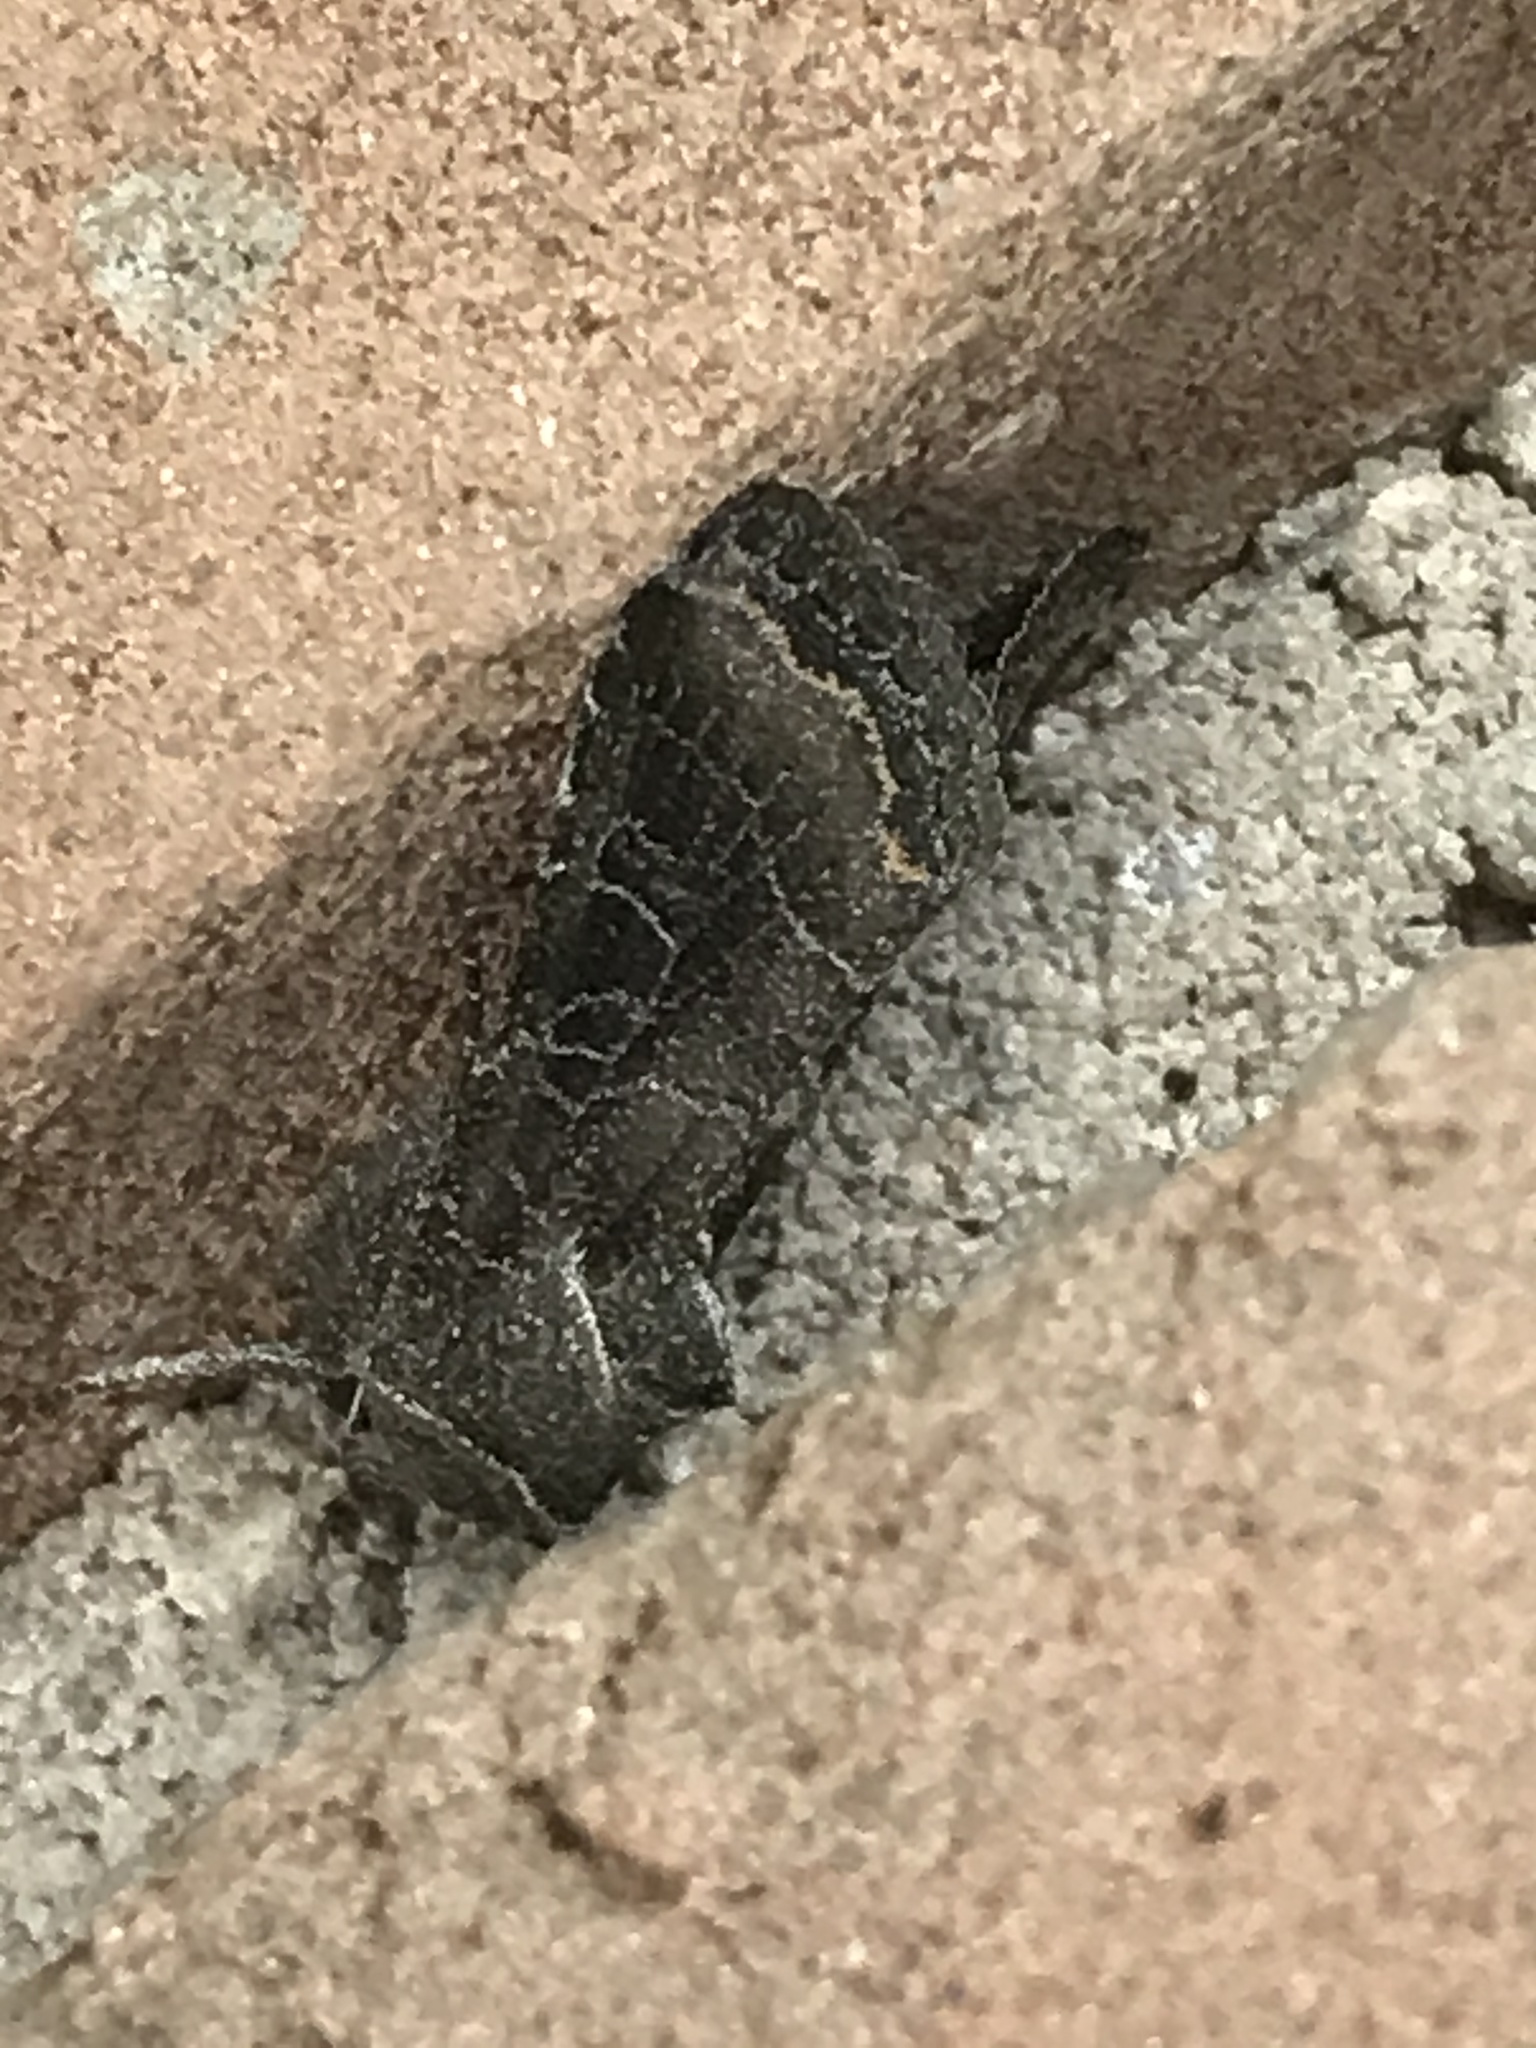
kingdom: Animalia
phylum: Arthropoda
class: Insecta
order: Lepidoptera
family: Noctuidae
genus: Lacinipolia
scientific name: Lacinipolia erecta
